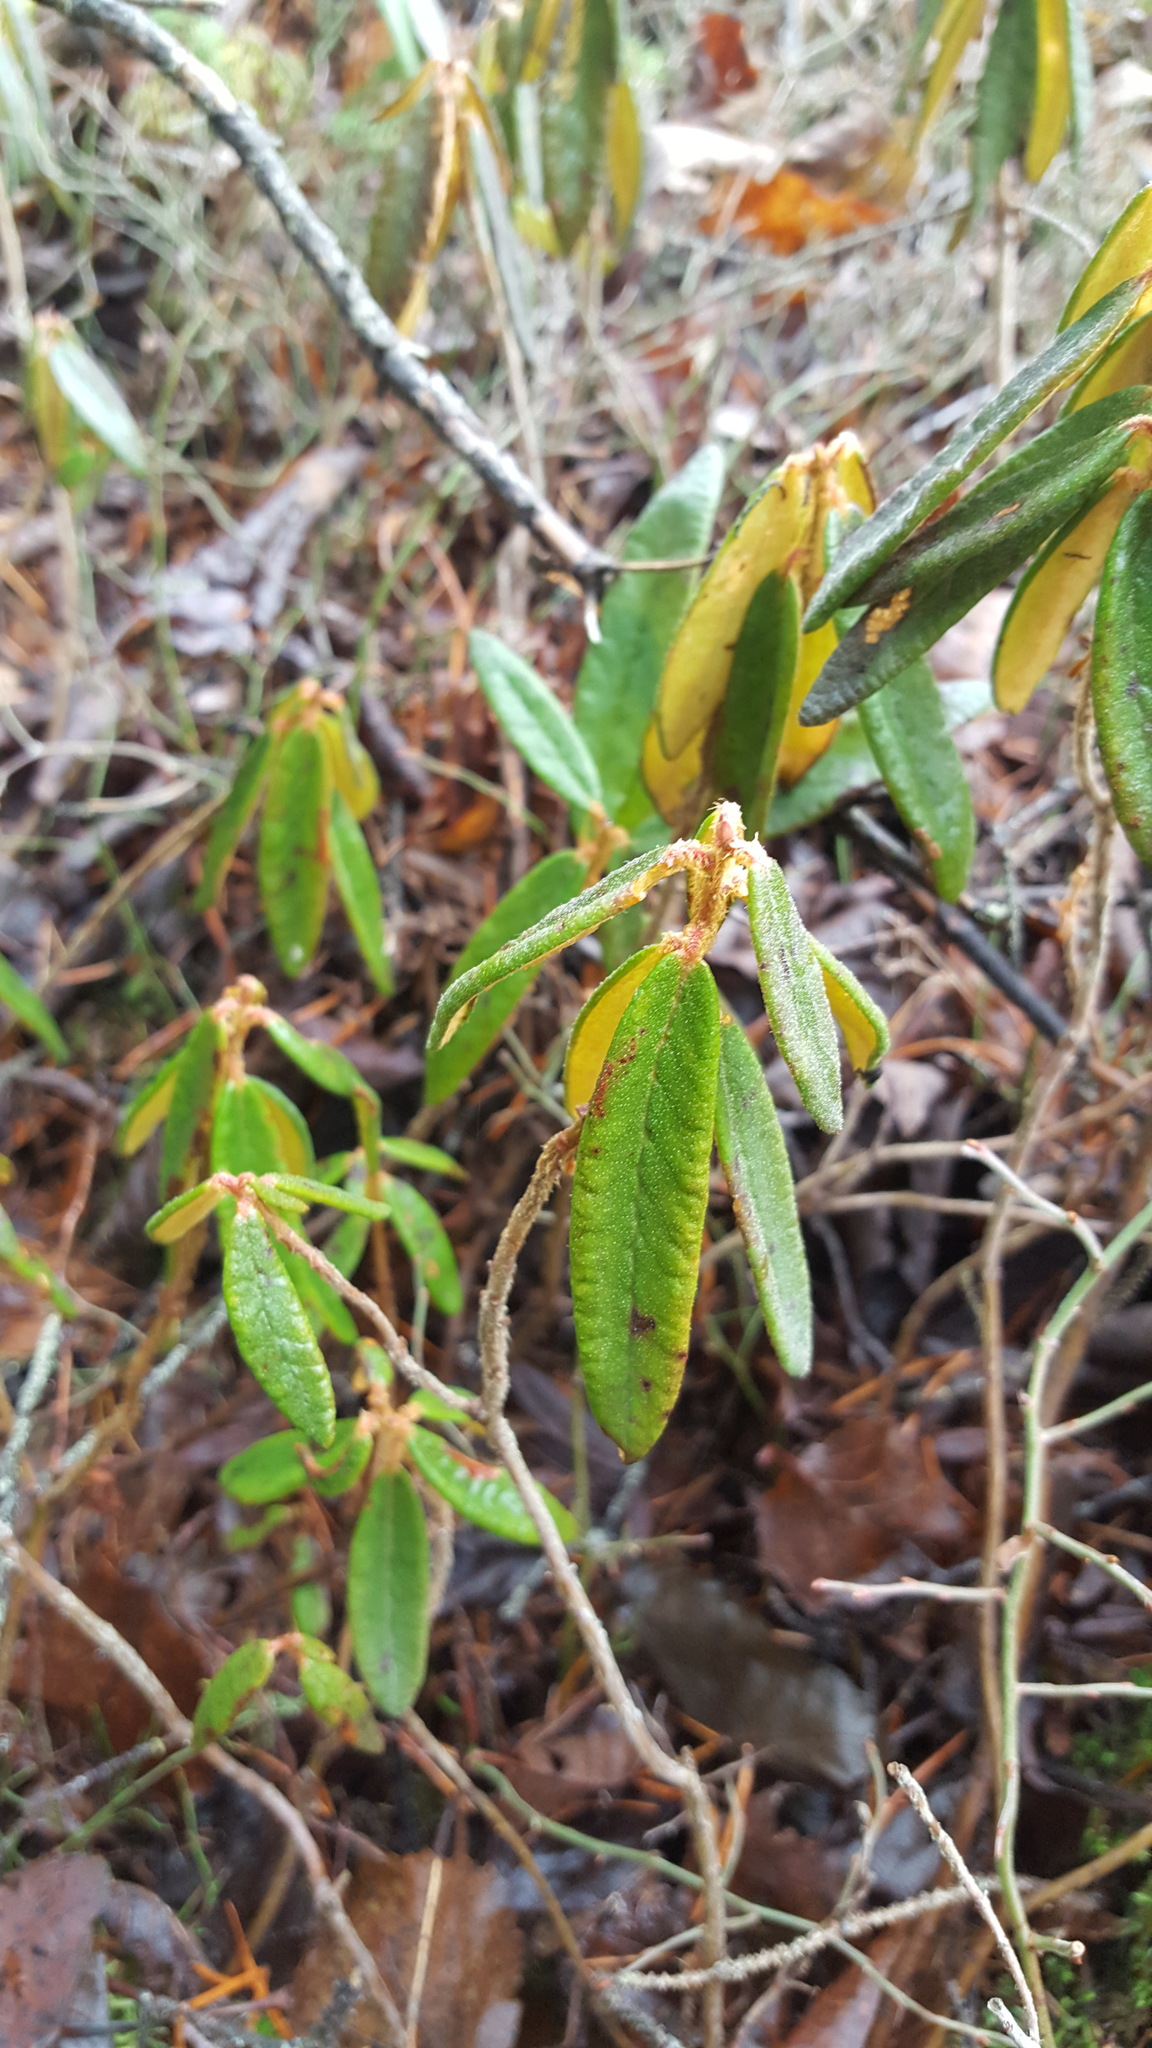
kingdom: Plantae
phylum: Tracheophyta
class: Magnoliopsida
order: Ericales
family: Ericaceae
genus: Rhododendron
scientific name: Rhododendron groenlandicum
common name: Bog labrador tea
